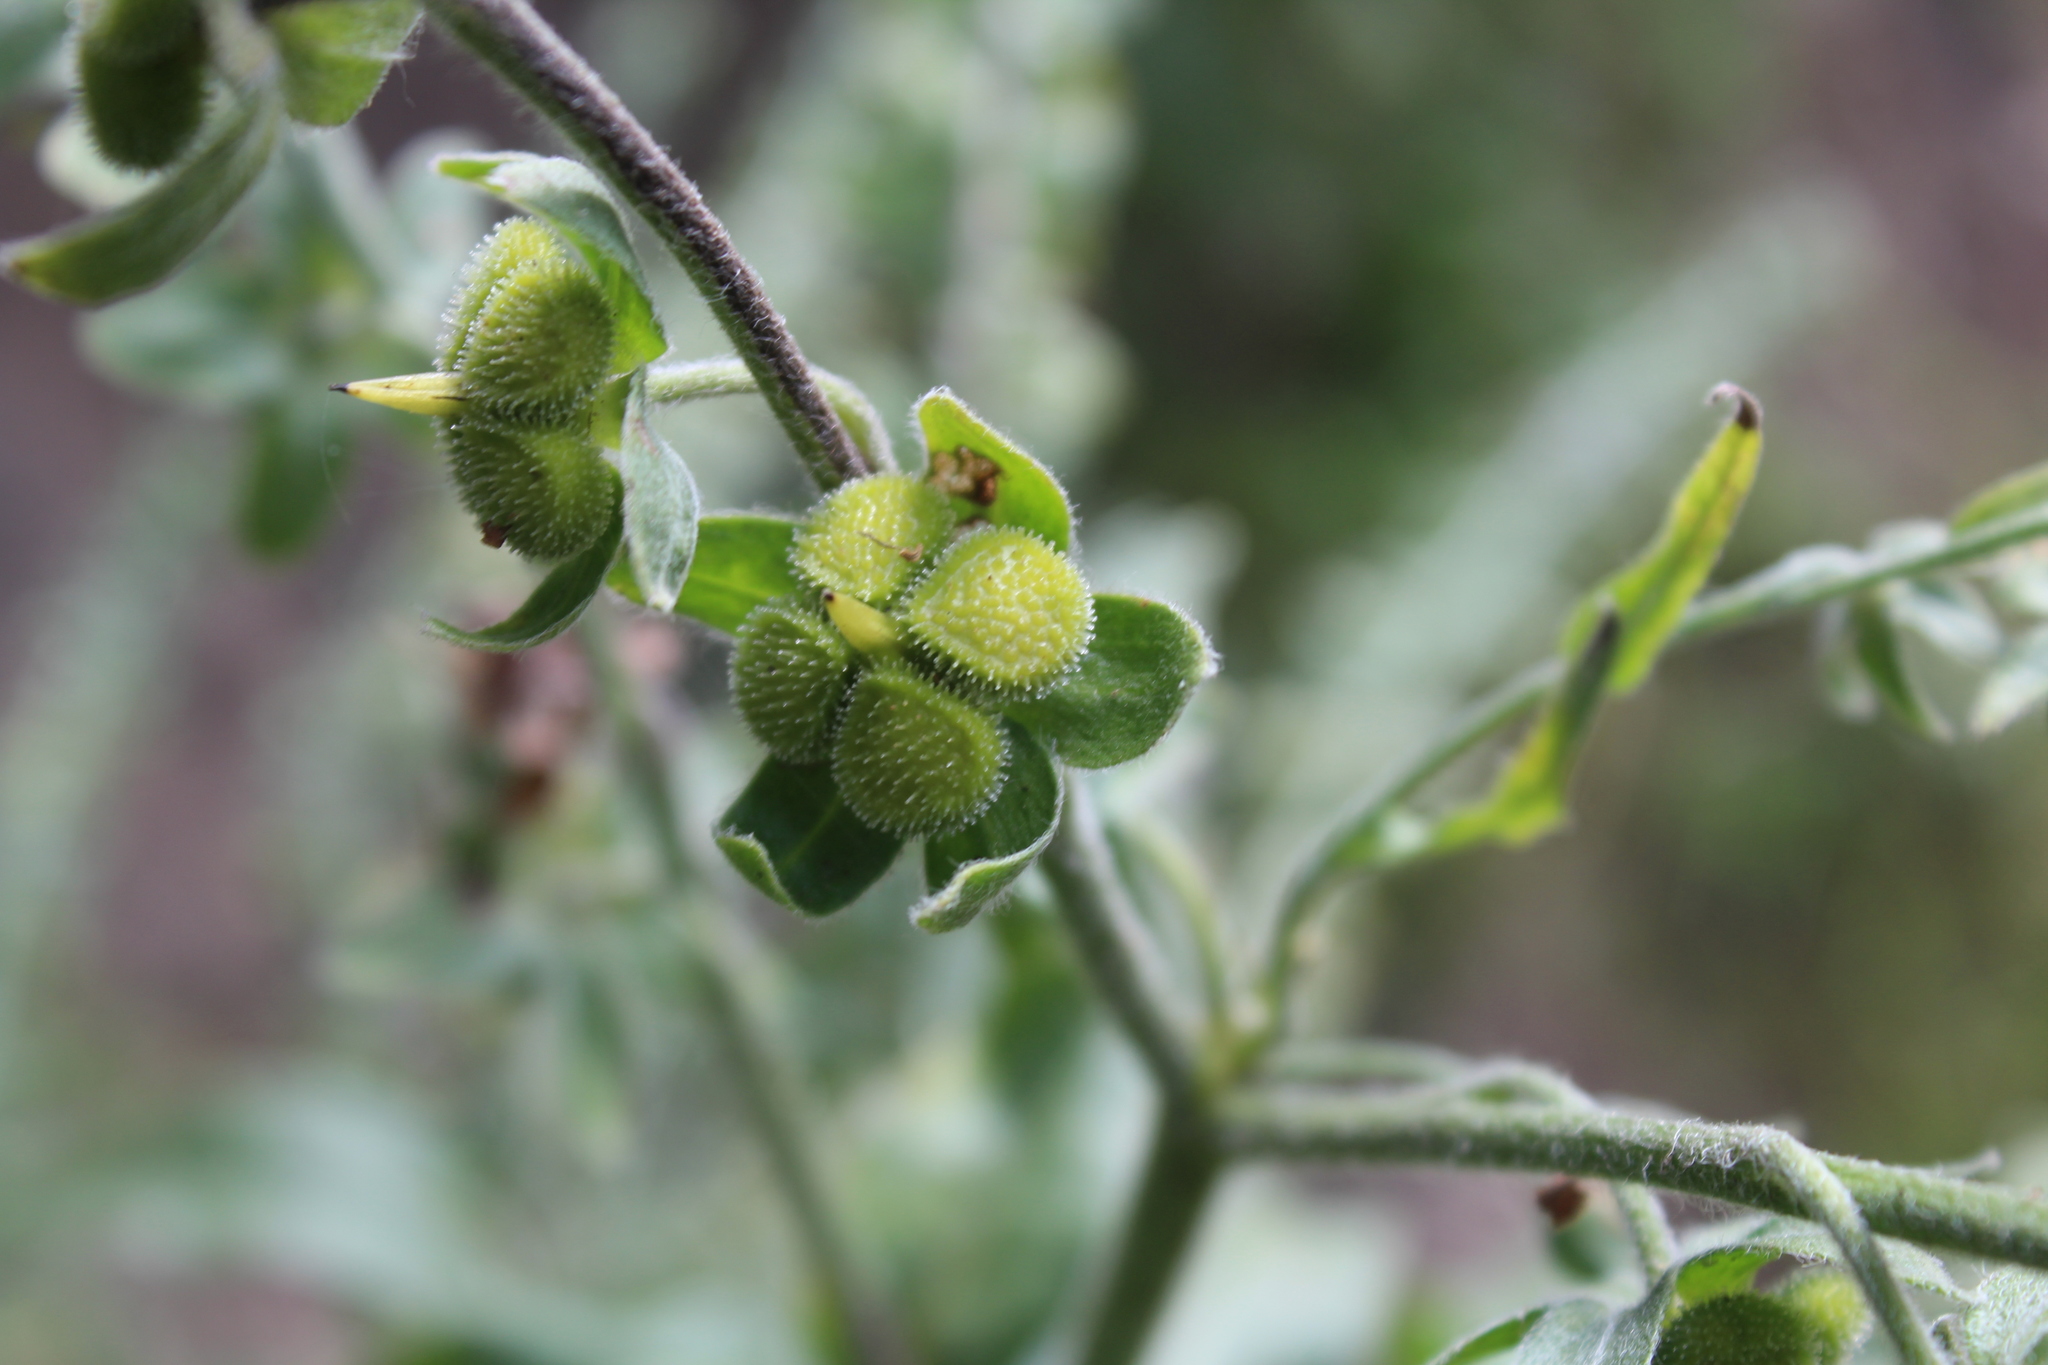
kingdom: Plantae
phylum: Tracheophyta
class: Magnoliopsida
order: Boraginales
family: Boraginaceae
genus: Cynoglossum
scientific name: Cynoglossum officinale
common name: Hound's-tongue
